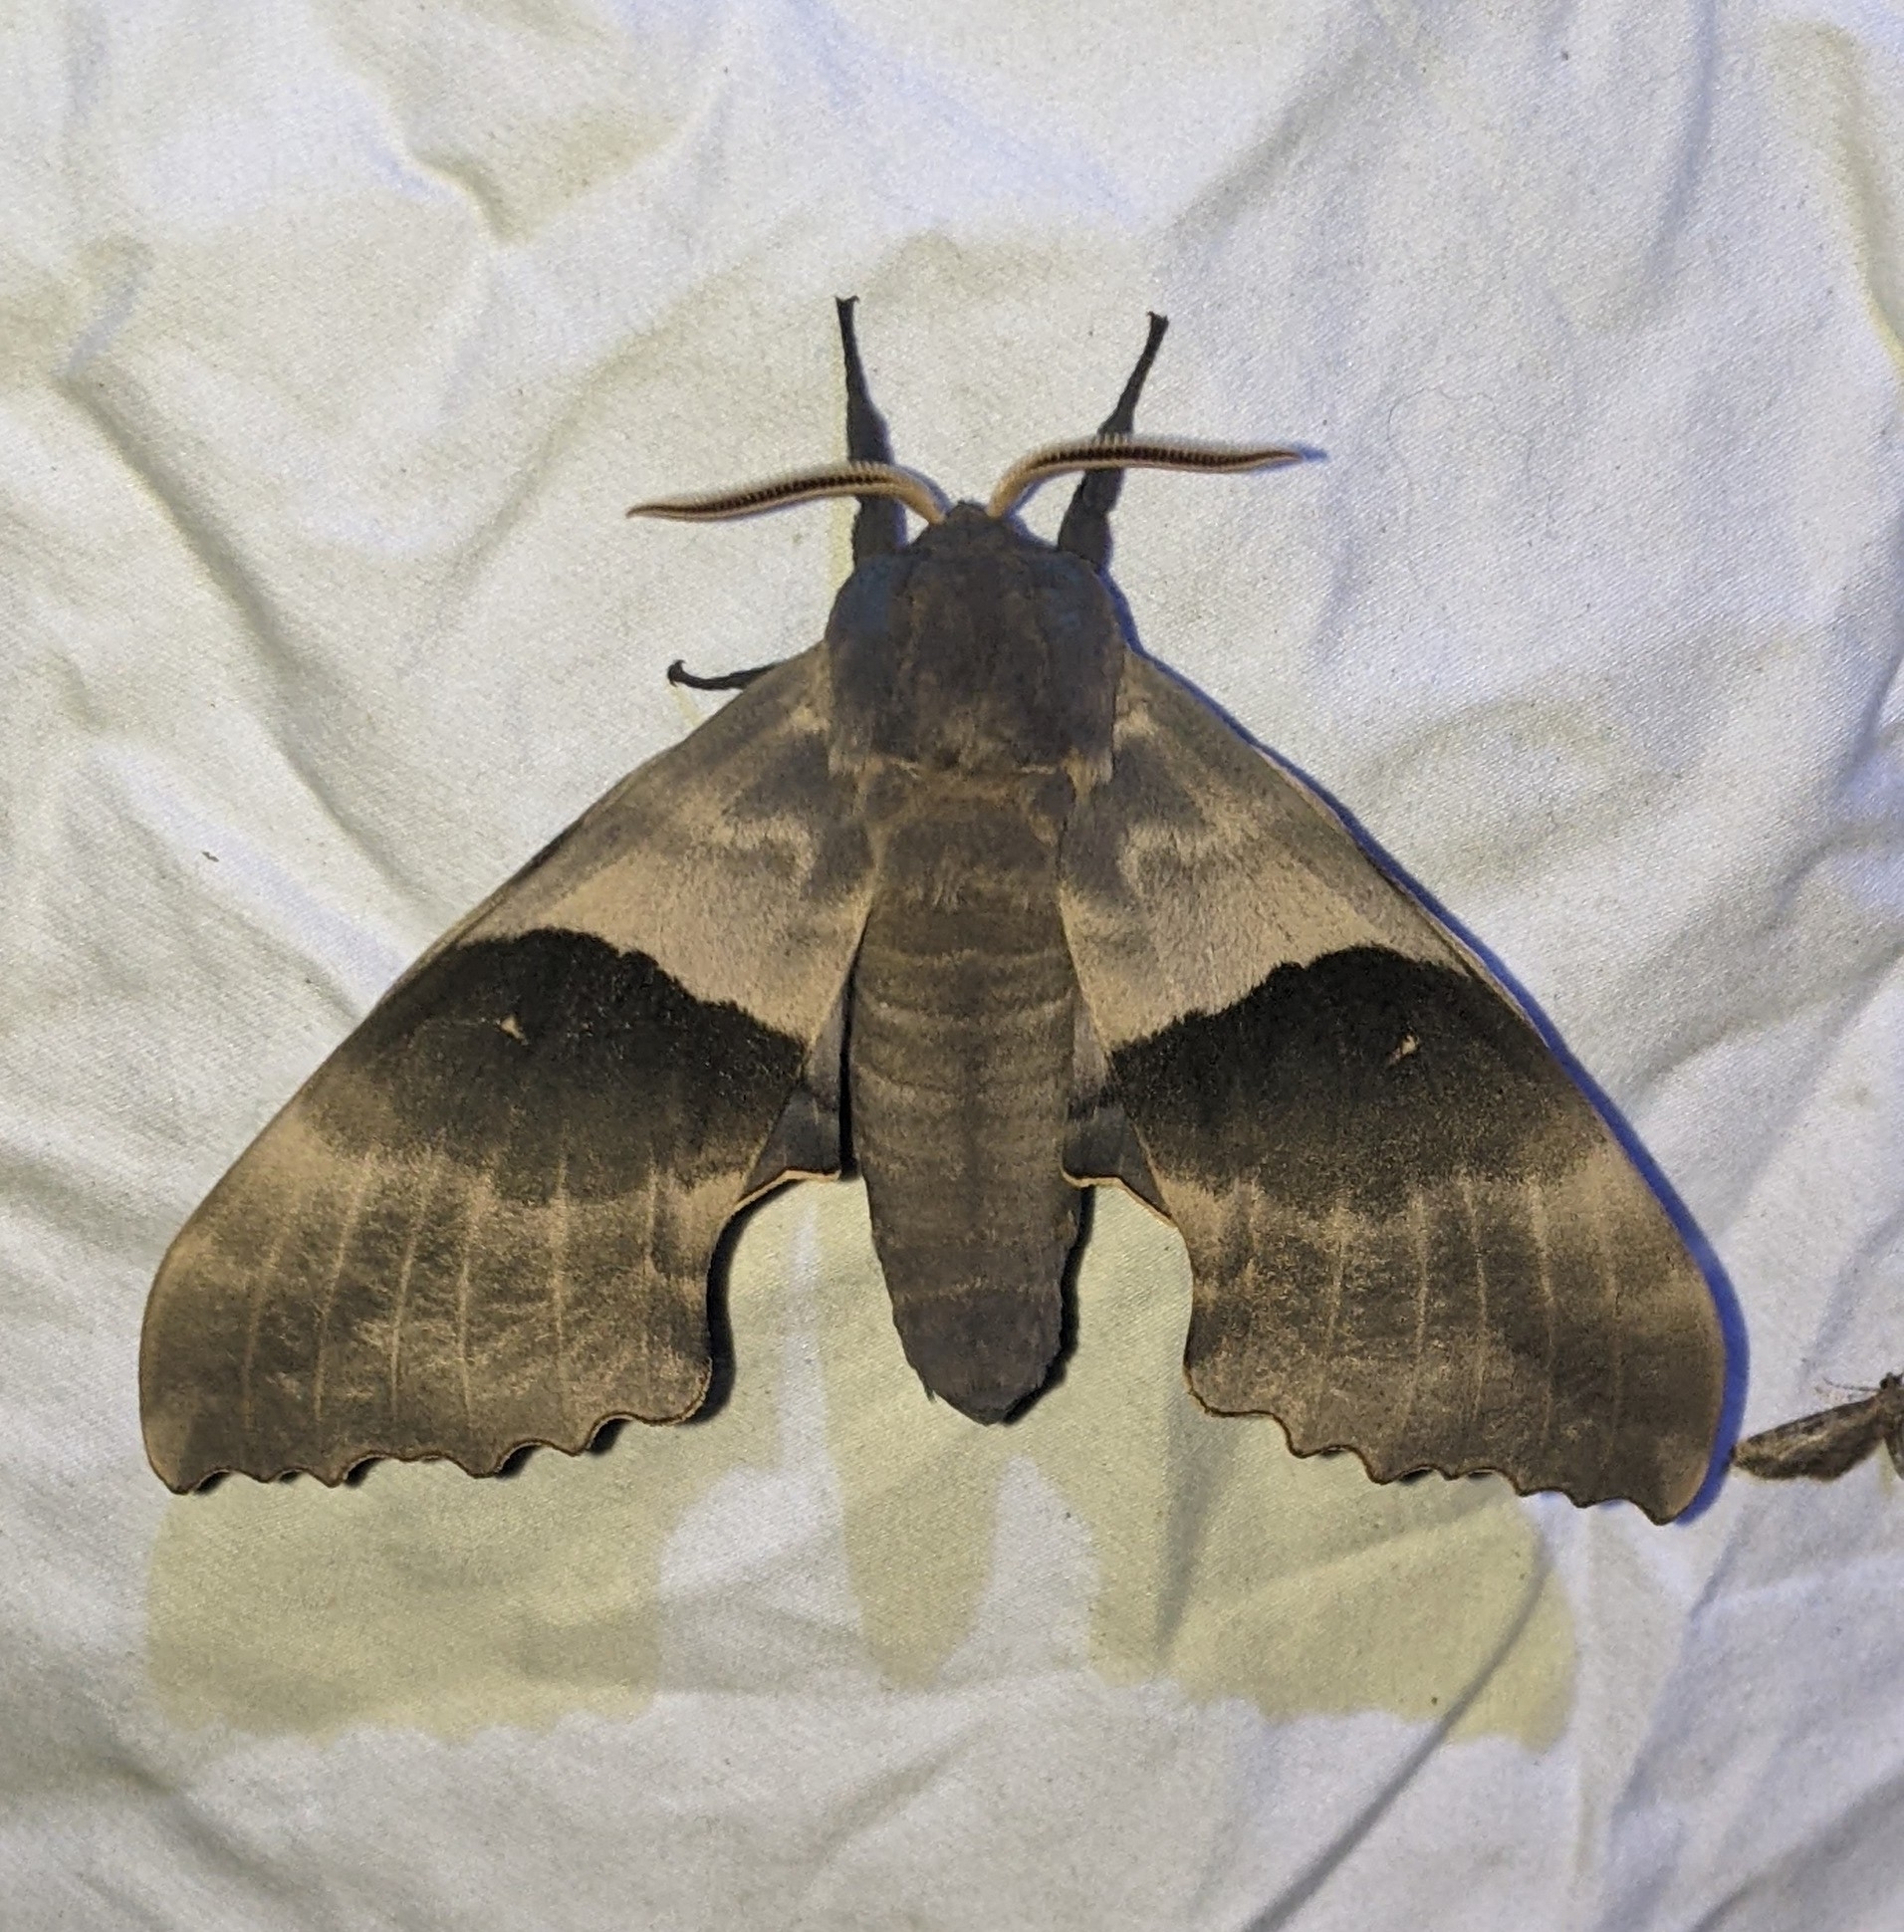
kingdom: Animalia
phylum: Arthropoda
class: Insecta
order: Lepidoptera
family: Sphingidae
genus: Pachysphinx
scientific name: Pachysphinx modesta
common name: Big poplar sphinx
